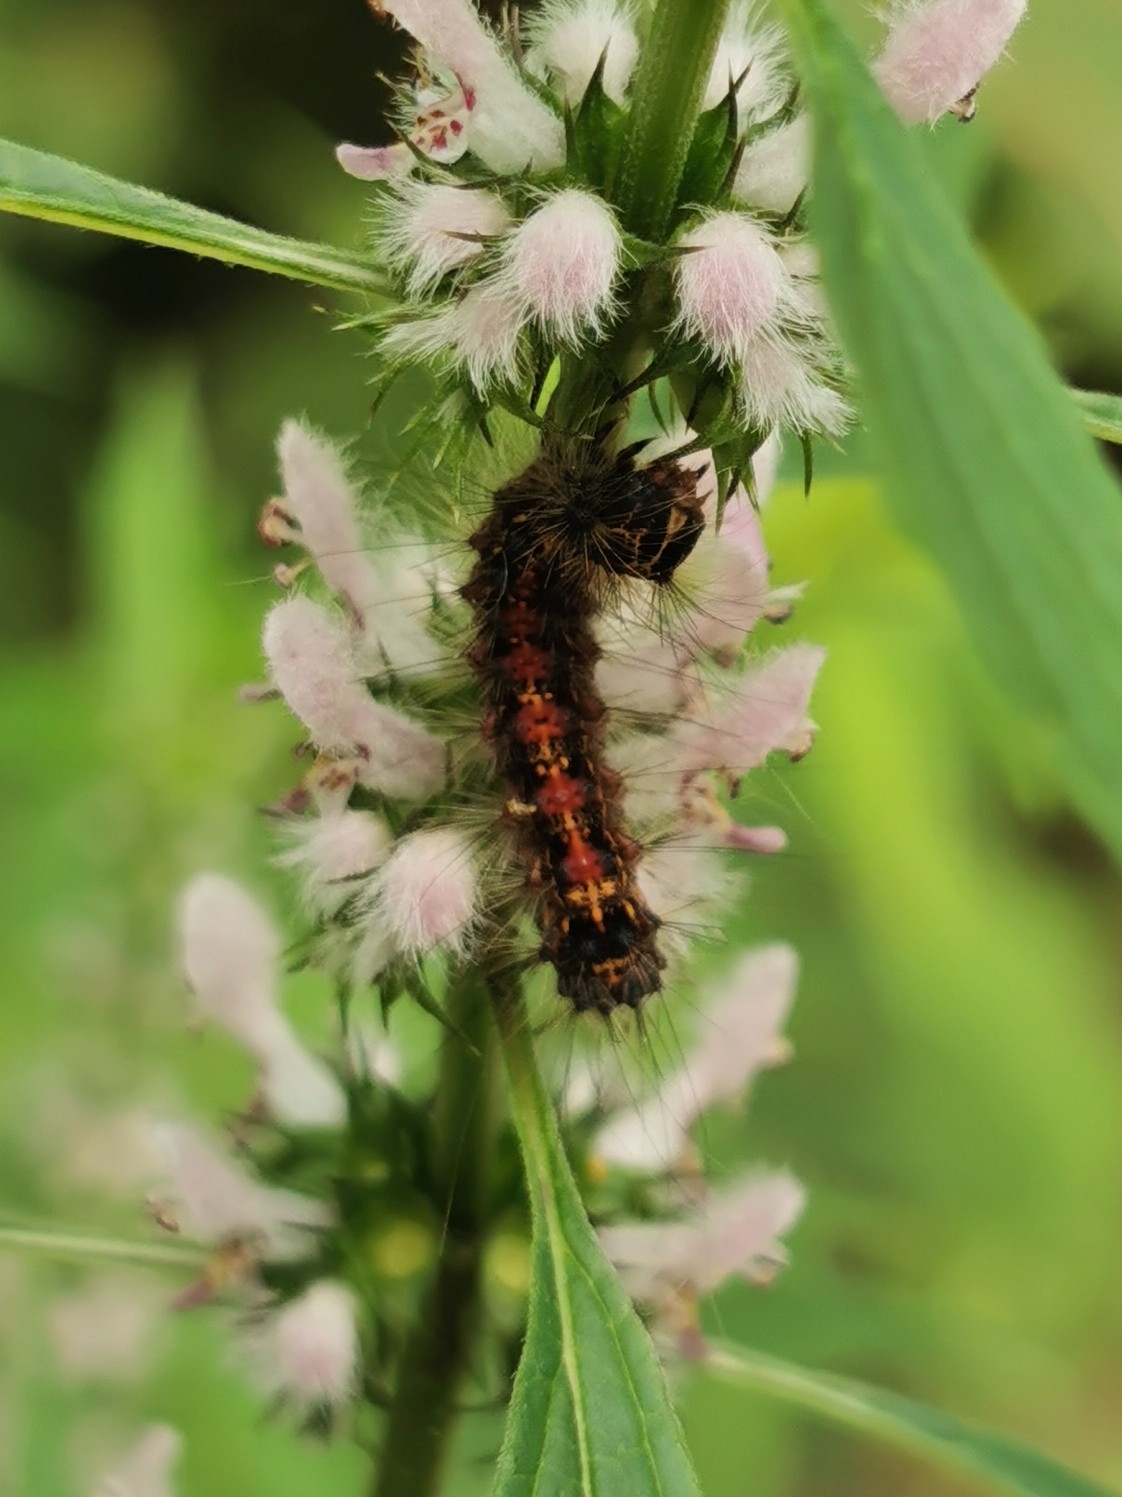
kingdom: Animalia
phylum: Arthropoda
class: Insecta
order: Lepidoptera
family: Erebidae
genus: Lymantria
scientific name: Lymantria dispar
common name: Gypsy moth
